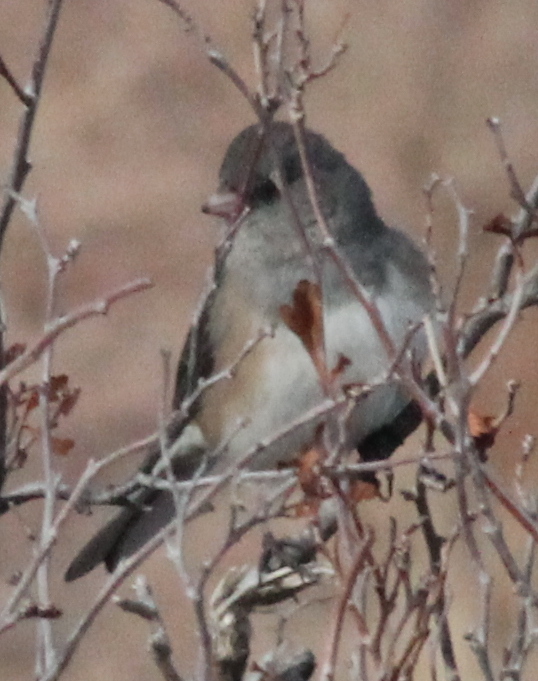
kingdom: Animalia
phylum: Chordata
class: Aves
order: Passeriformes
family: Passerellidae
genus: Junco
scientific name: Junco hyemalis
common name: Dark-eyed junco
